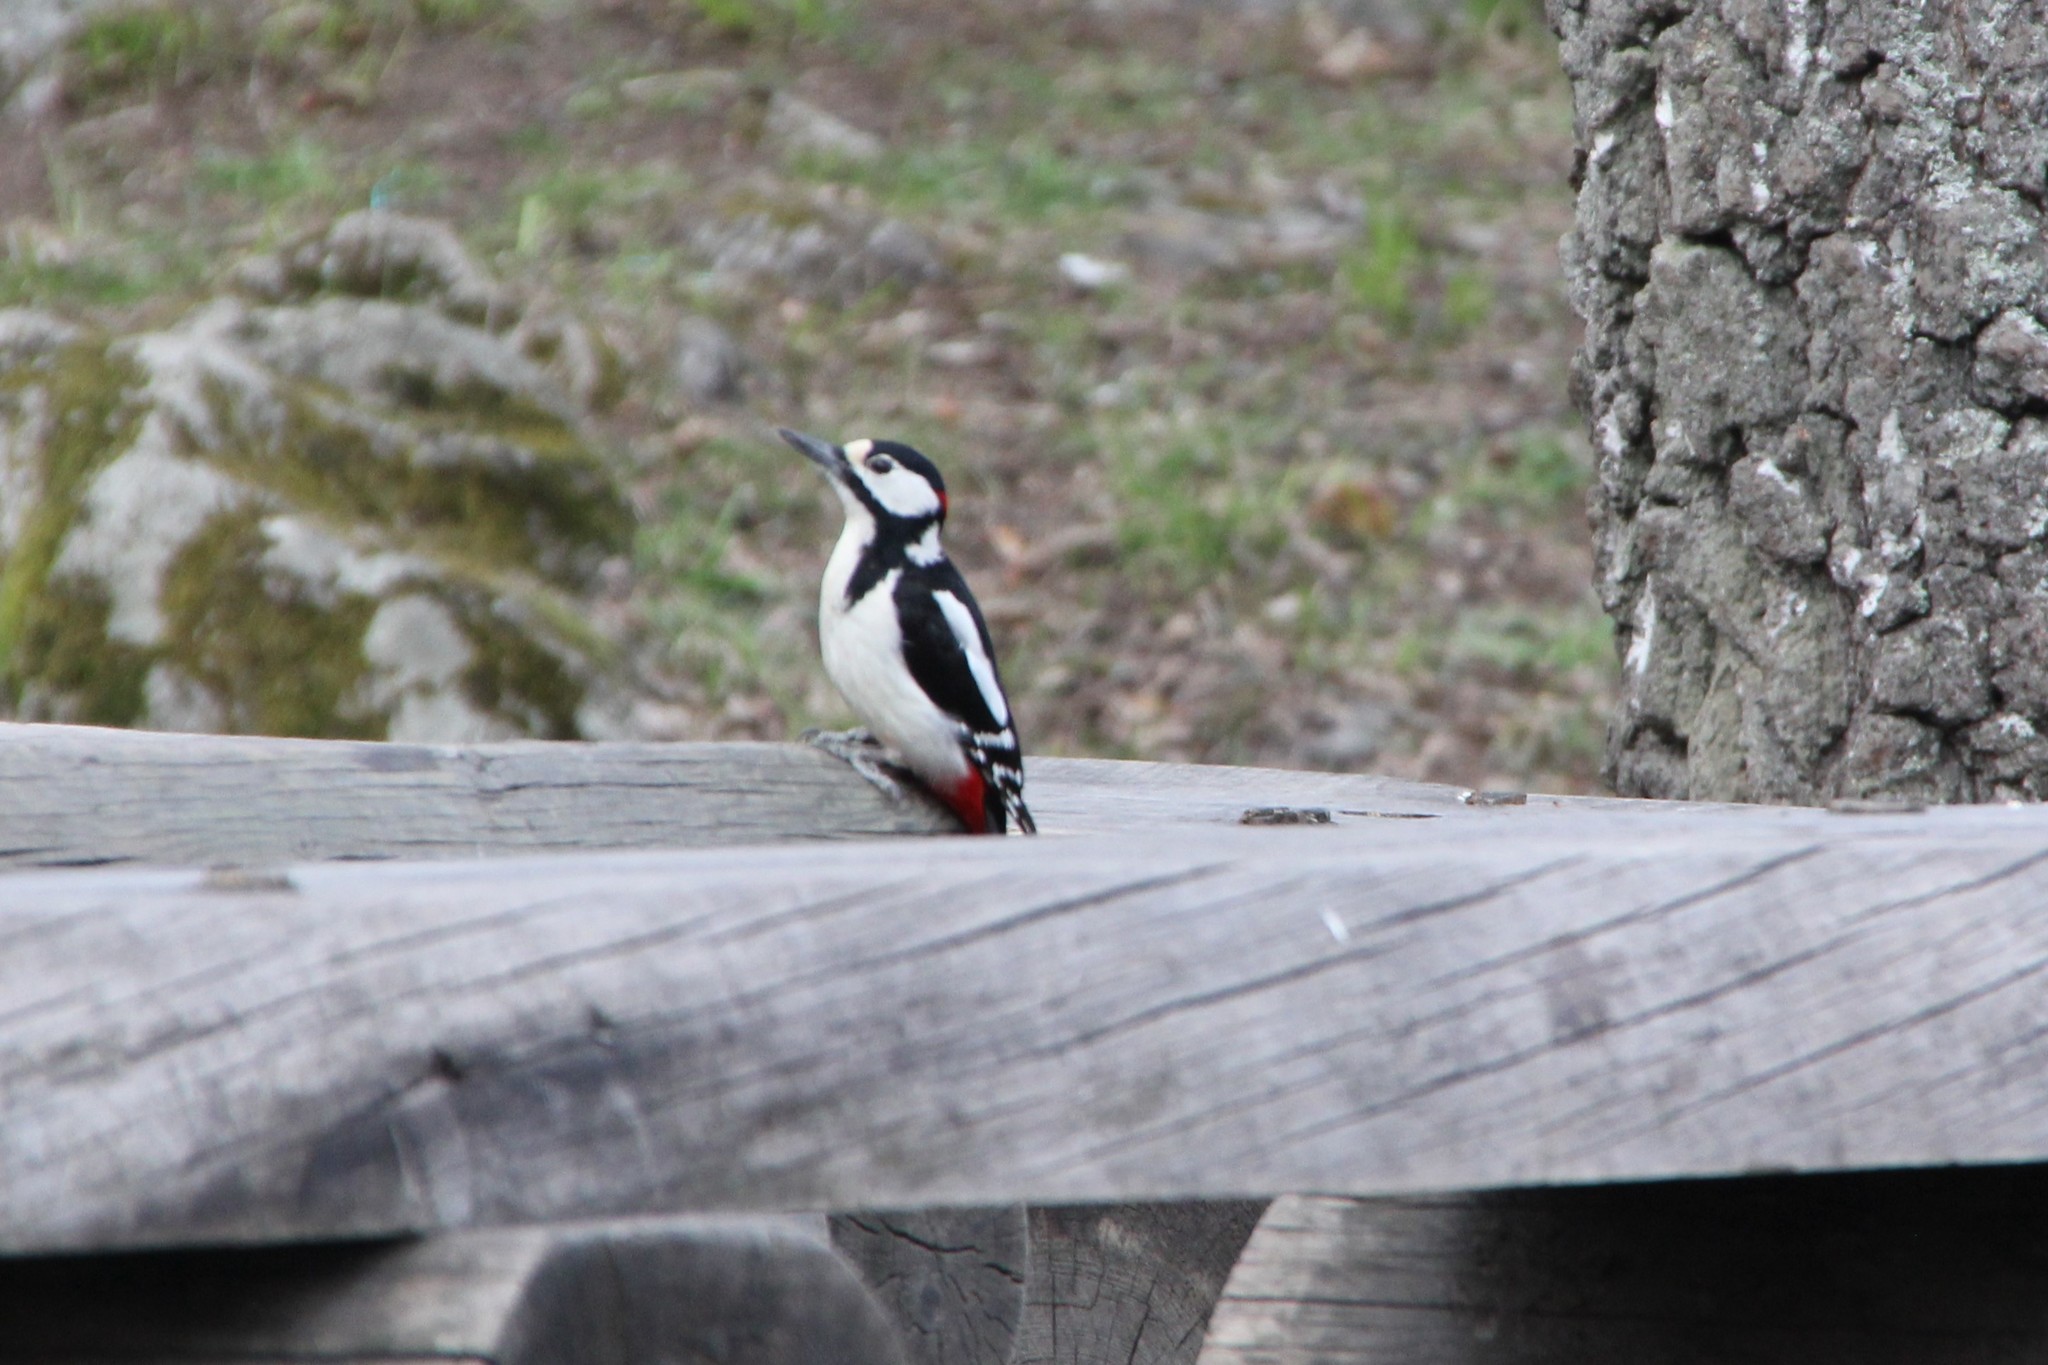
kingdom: Animalia
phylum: Chordata
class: Aves
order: Piciformes
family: Picidae
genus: Dendrocopos
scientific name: Dendrocopos major
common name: Great spotted woodpecker
